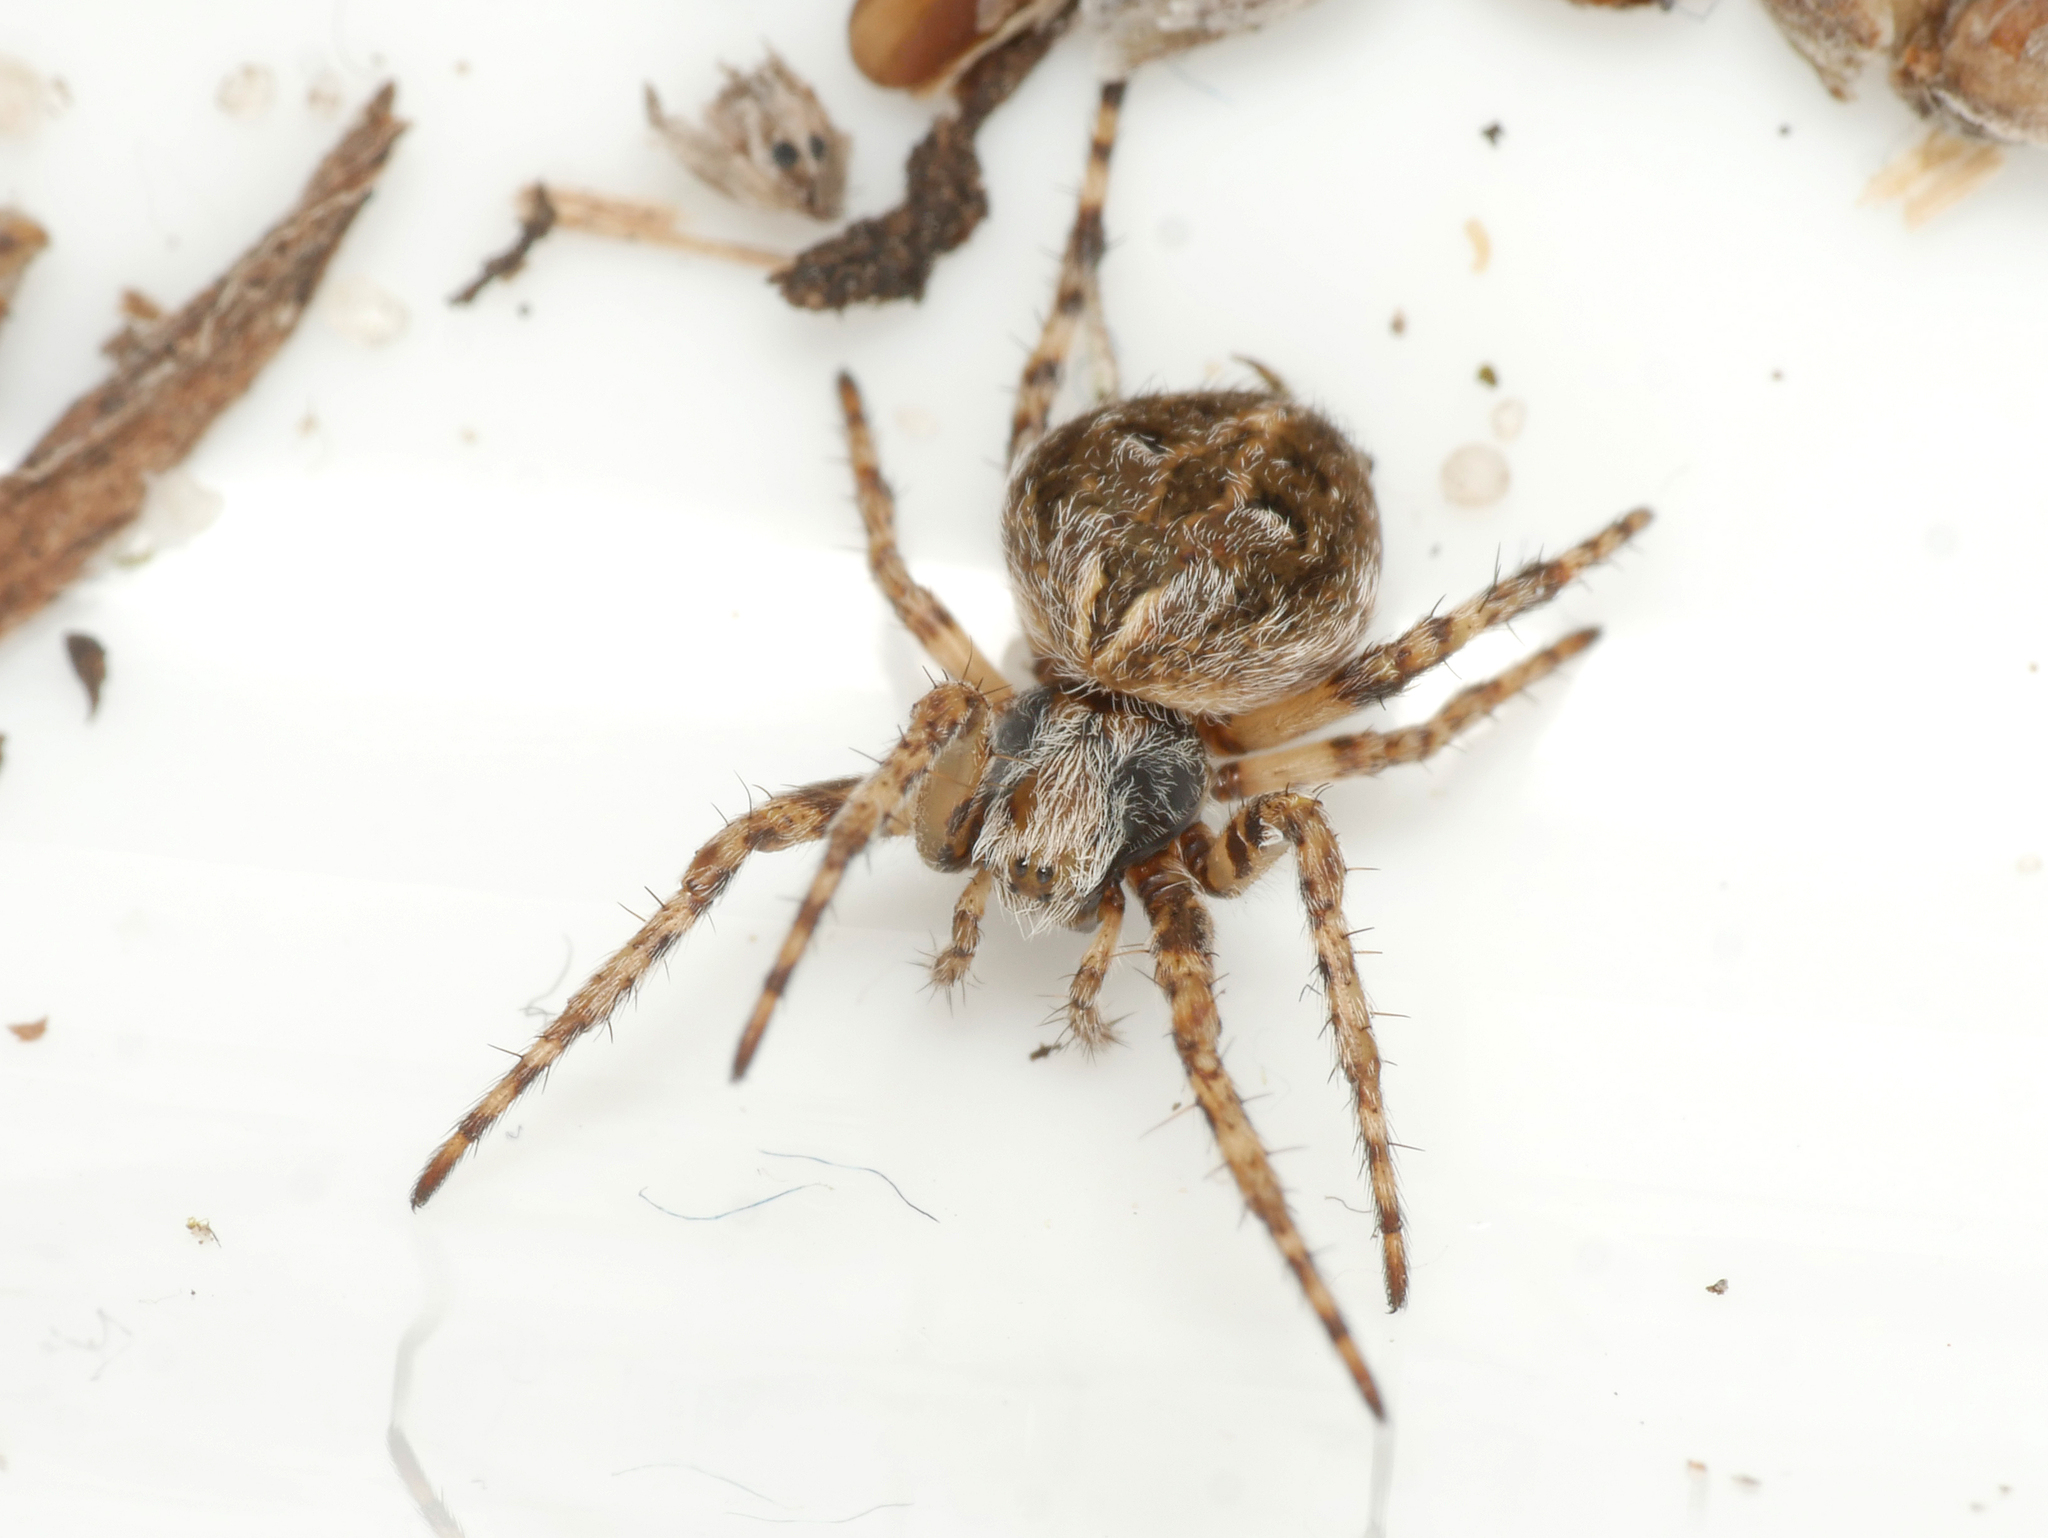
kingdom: Animalia
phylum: Arthropoda
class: Arachnida
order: Araneae
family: Araneidae
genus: Agalenatea
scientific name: Agalenatea redii
